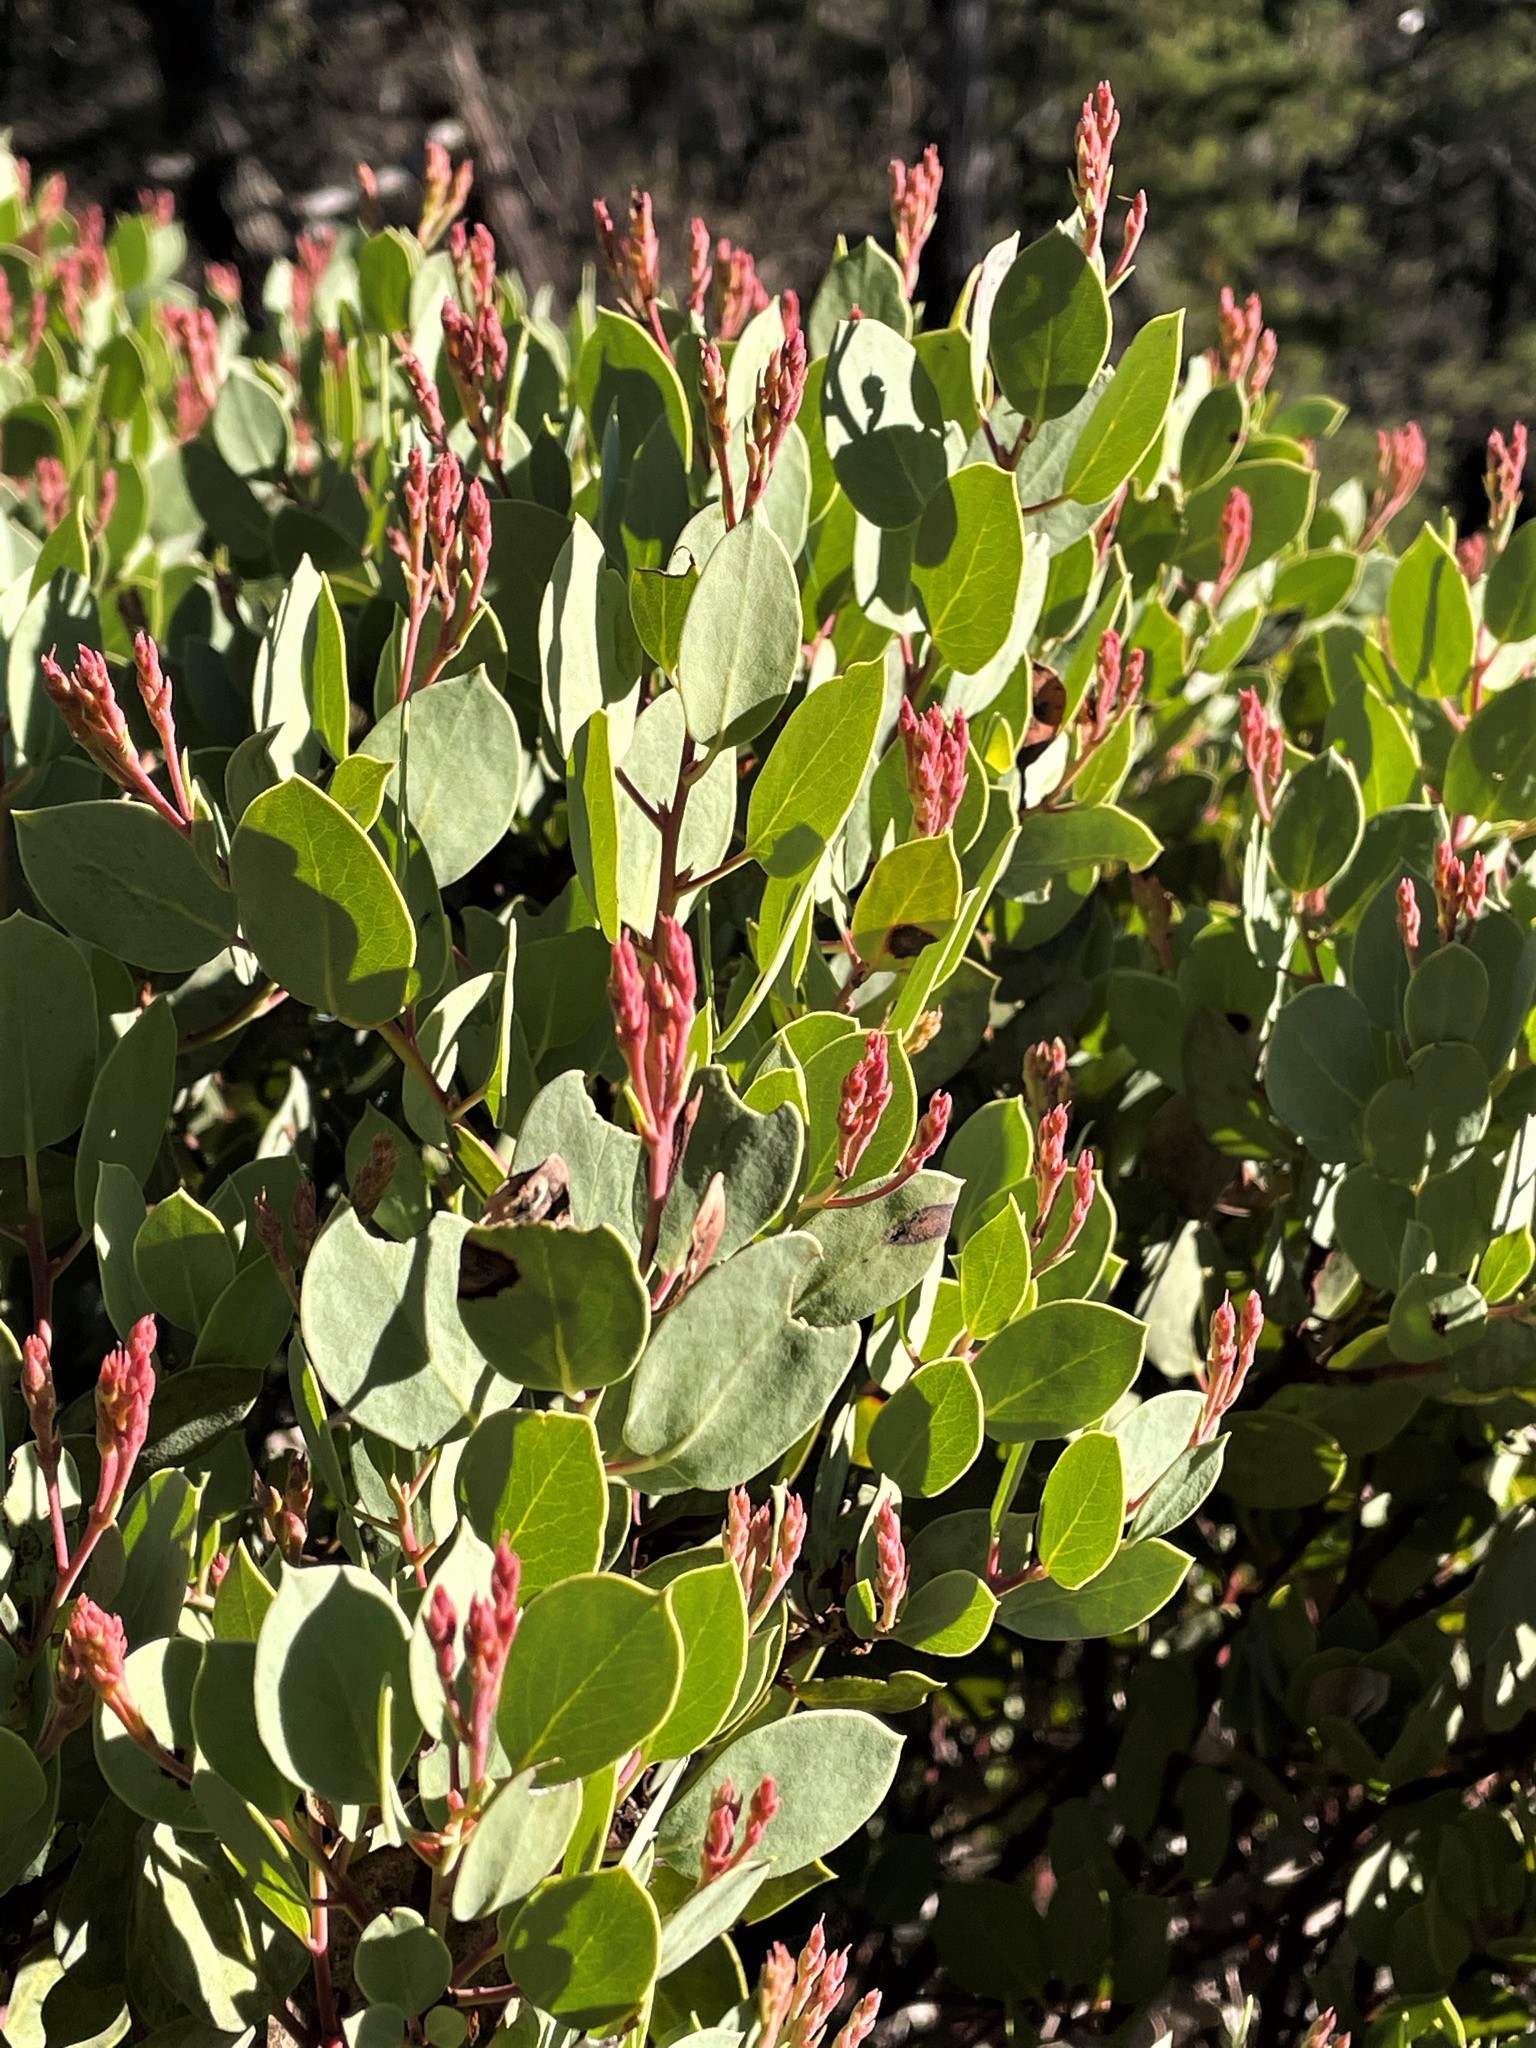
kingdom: Plantae
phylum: Tracheophyta
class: Magnoliopsida
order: Ericales
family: Ericaceae
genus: Arctostaphylos
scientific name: Arctostaphylos viscida
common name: White-leaf manzanita
